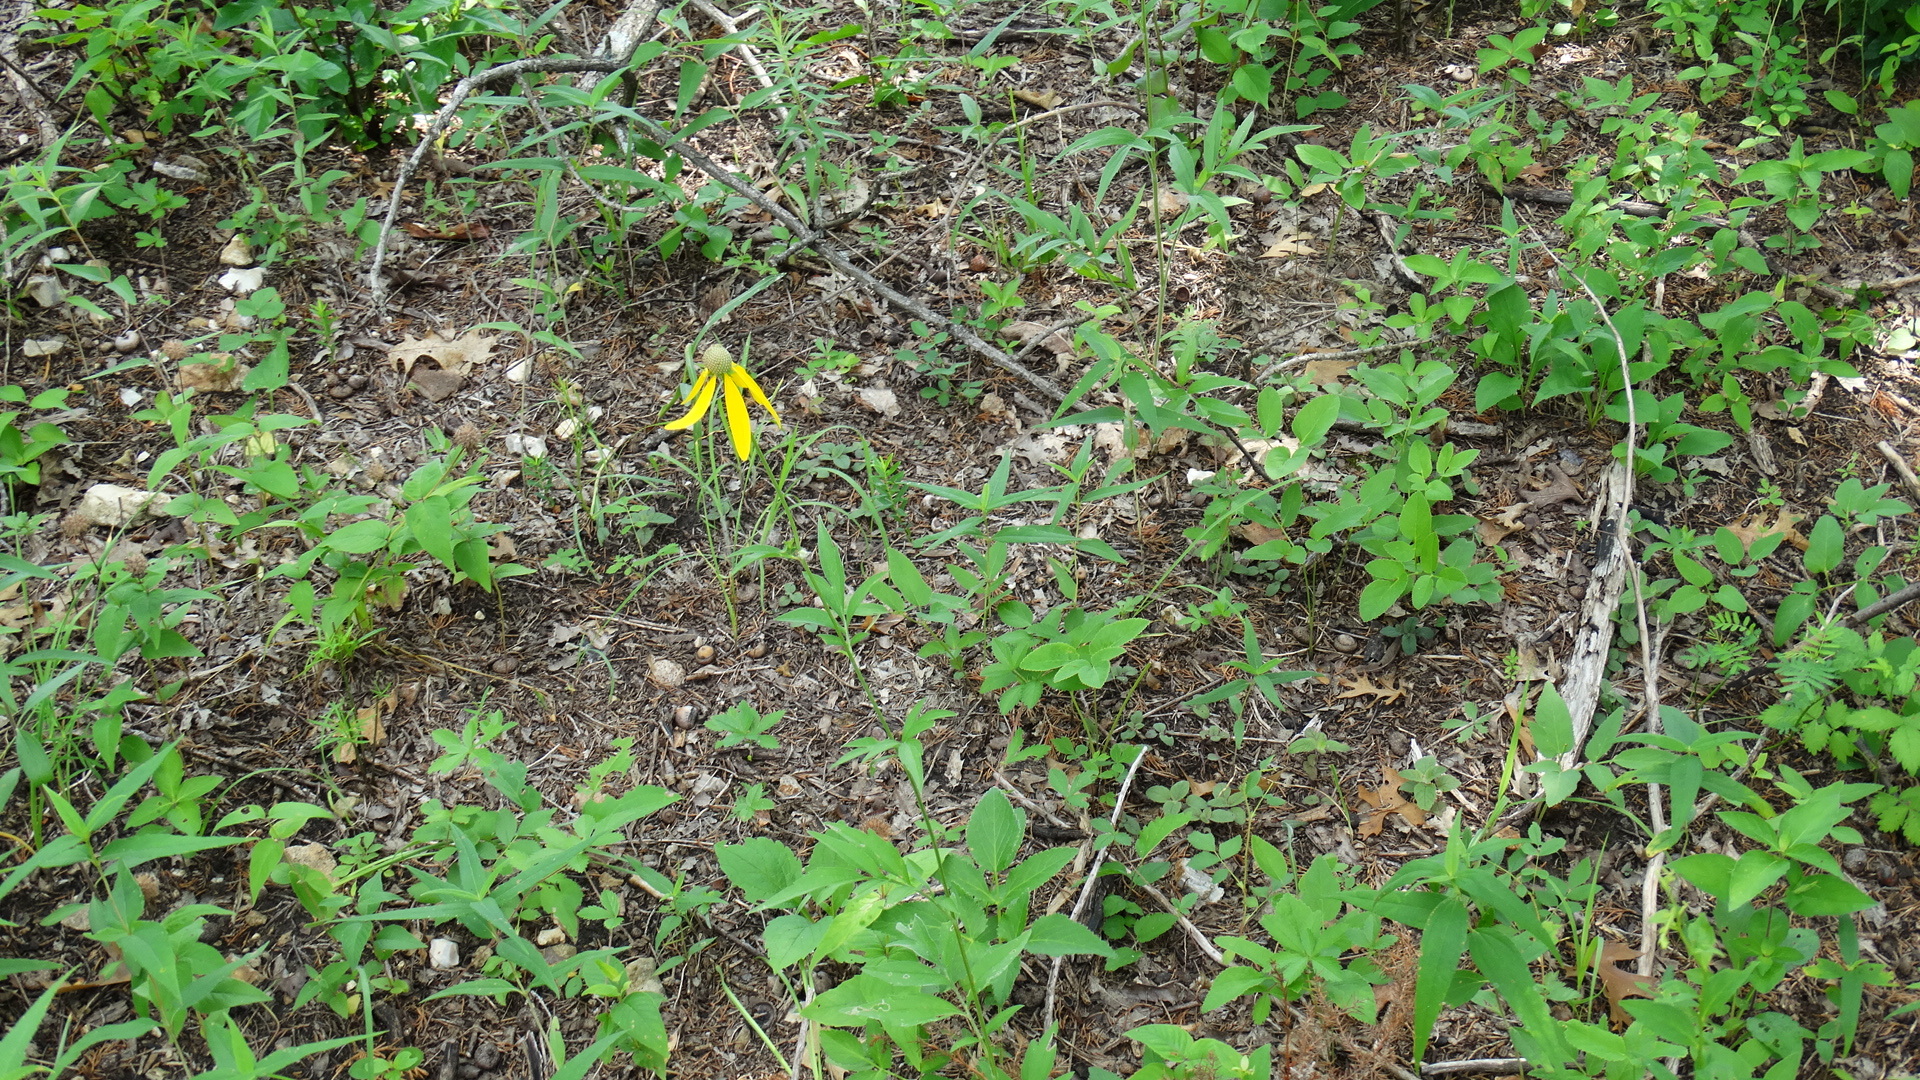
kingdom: Plantae
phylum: Tracheophyta
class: Magnoliopsida
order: Asterales
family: Asteraceae
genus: Ratibida
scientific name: Ratibida pinnata
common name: Drooping prairie-coneflower
